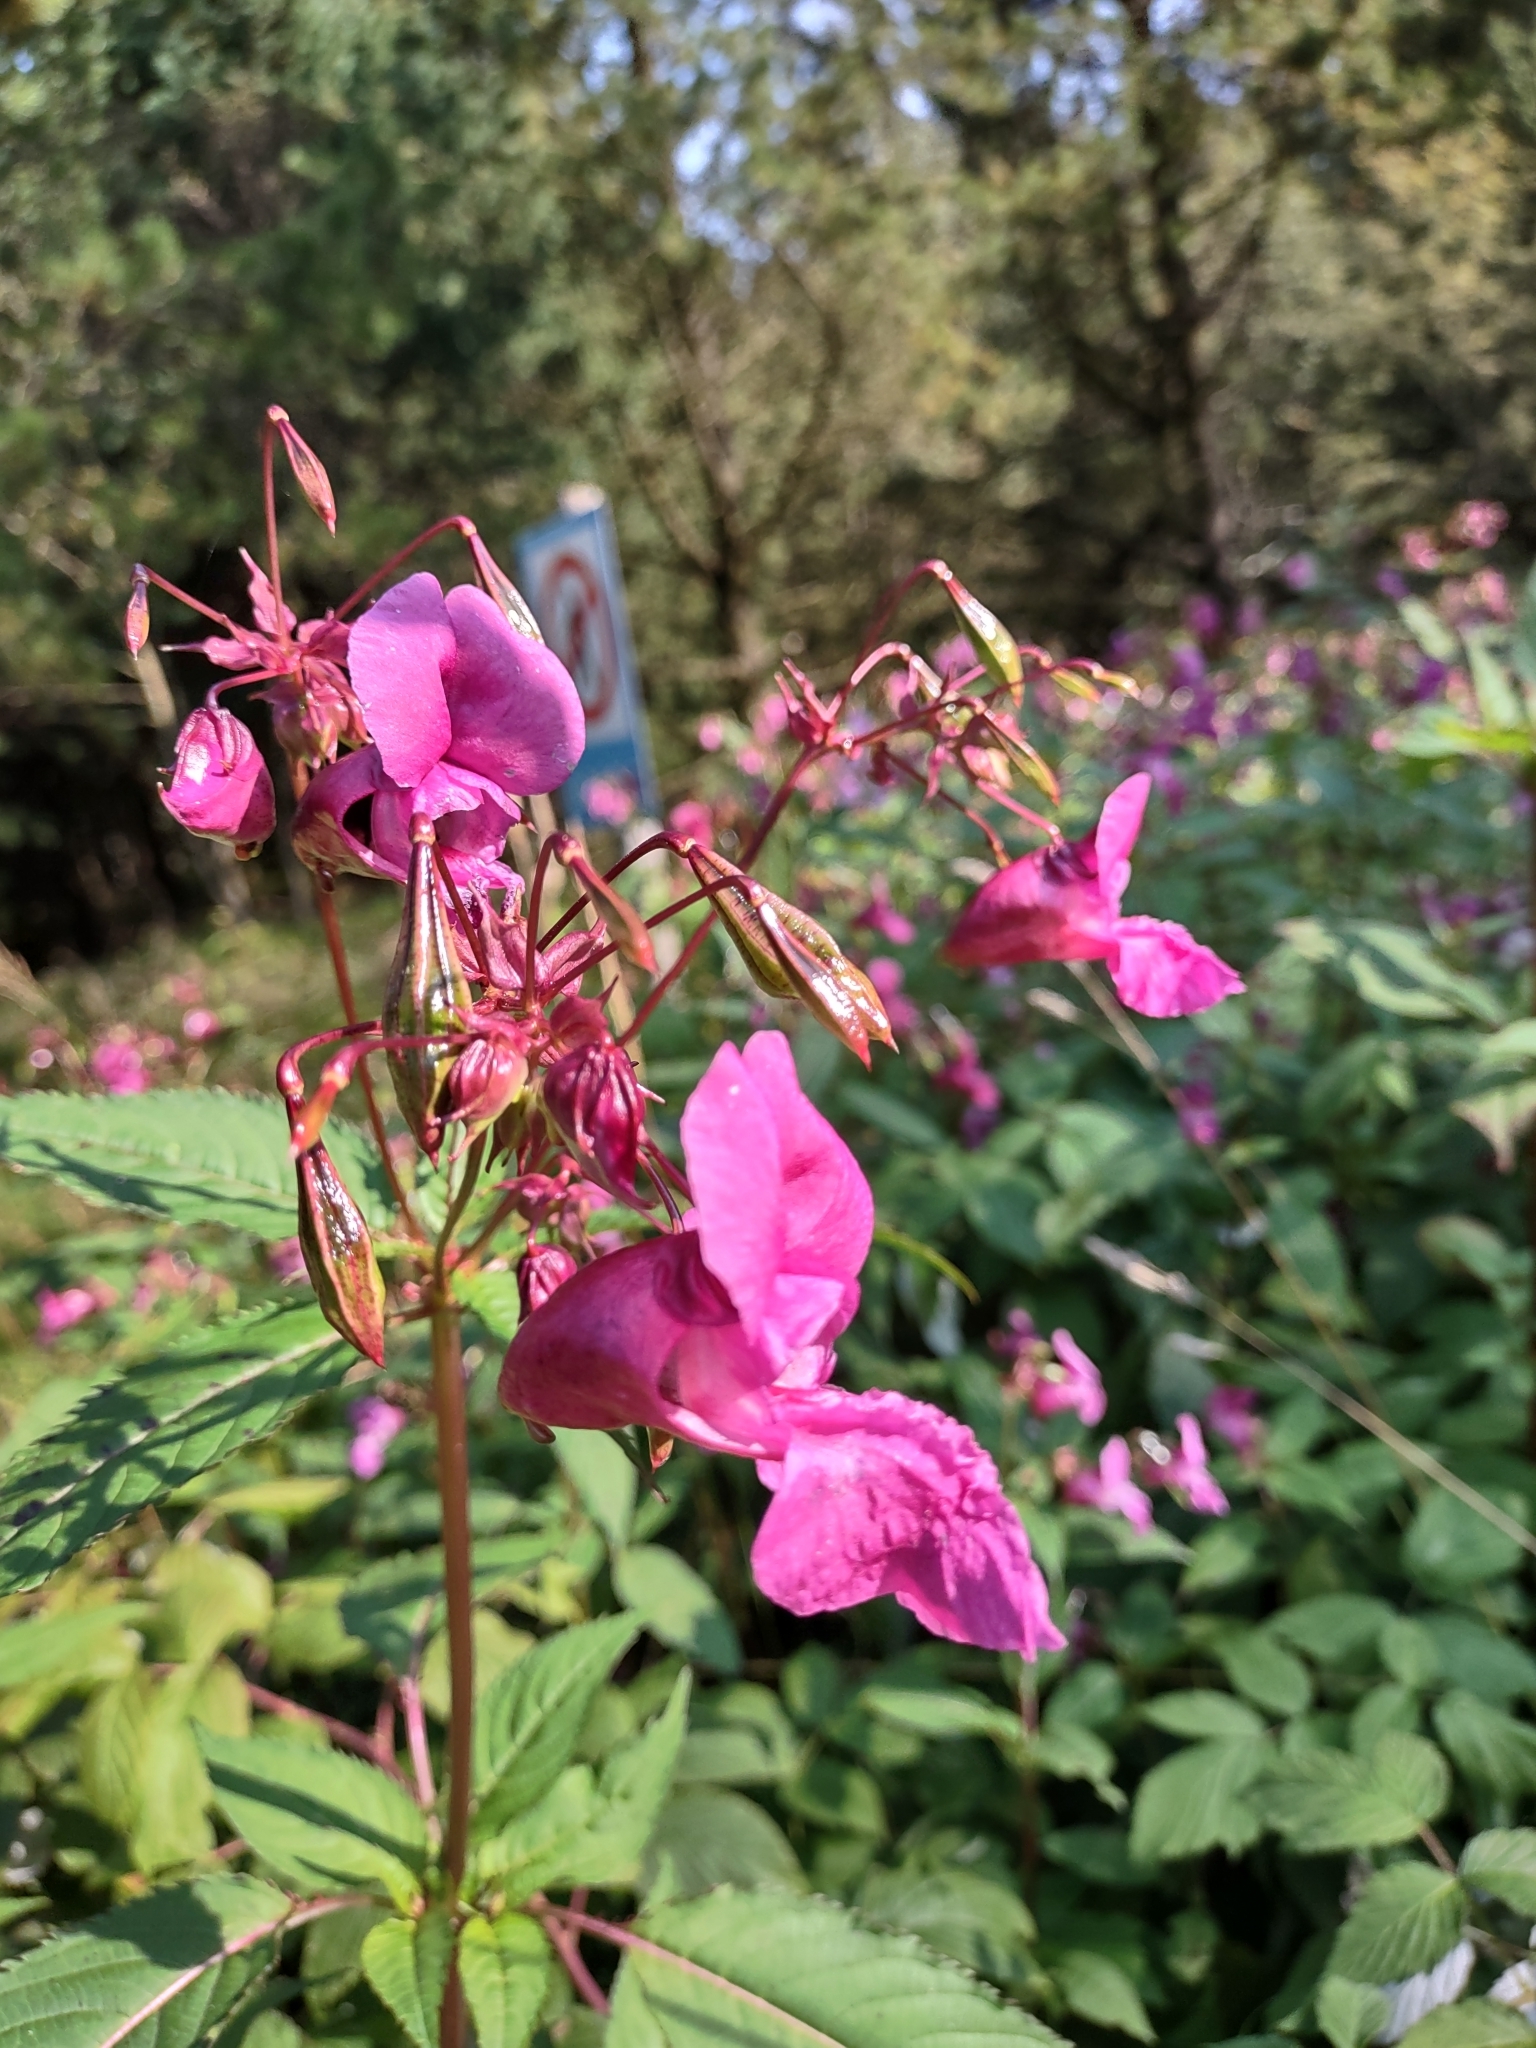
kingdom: Plantae
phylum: Tracheophyta
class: Magnoliopsida
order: Ericales
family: Balsaminaceae
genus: Impatiens
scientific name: Impatiens glandulifera
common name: Himalayan balsam
